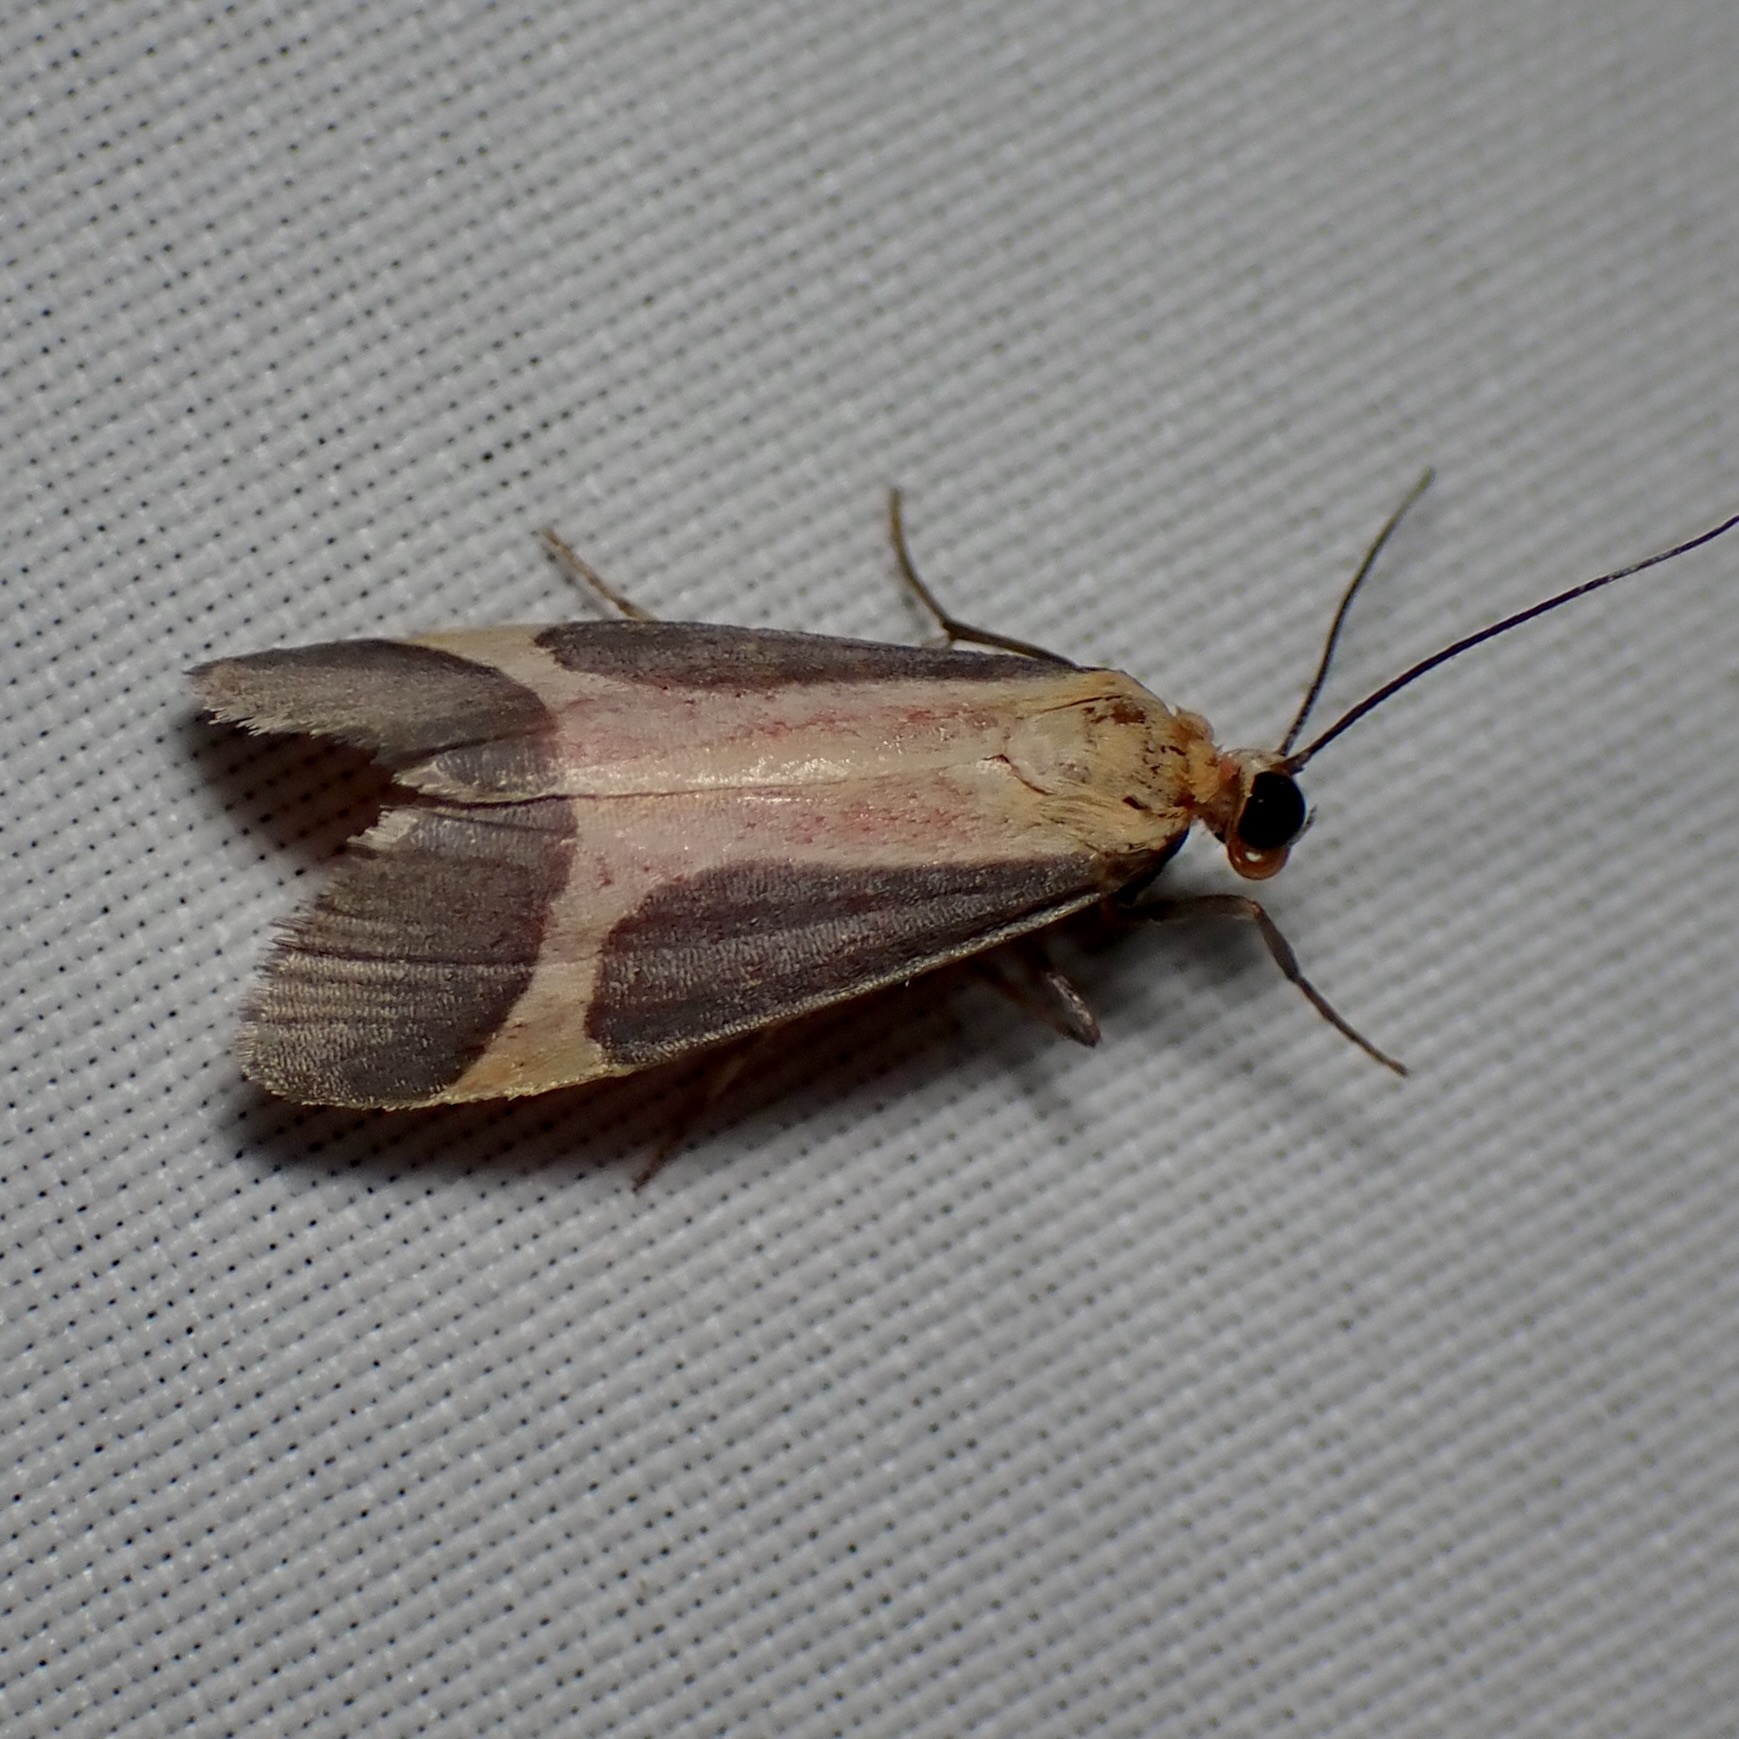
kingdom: Animalia
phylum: Arthropoda
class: Insecta
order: Lepidoptera
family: Erebidae
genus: Cisthene
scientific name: Cisthene angelus
